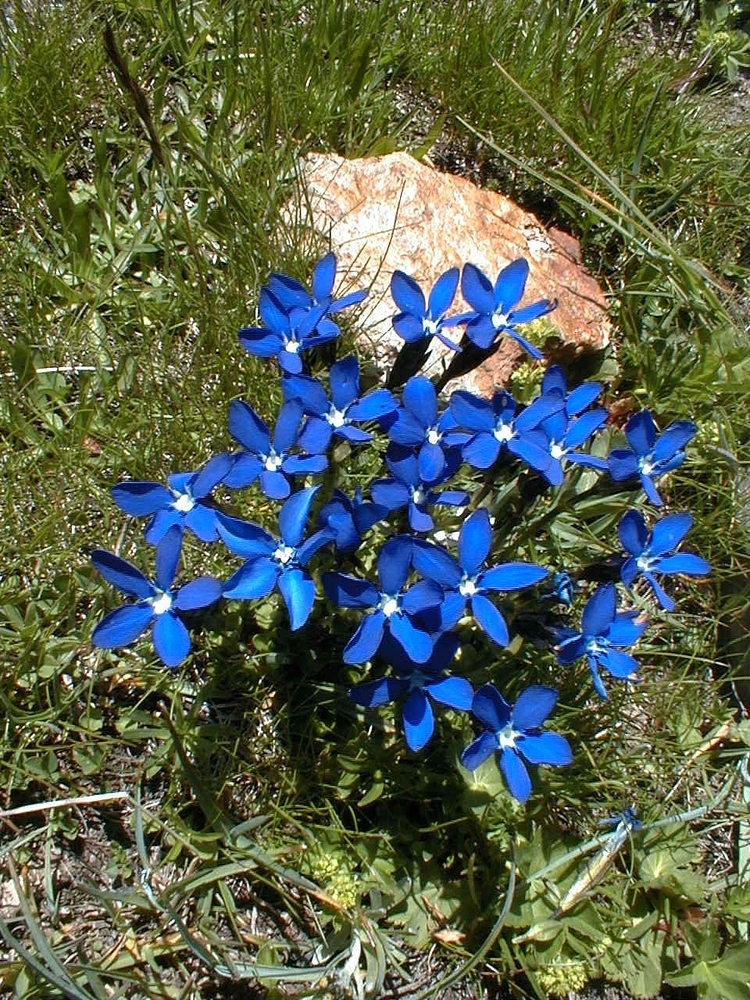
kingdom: Plantae
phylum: Tracheophyta
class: Magnoliopsida
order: Gentianales
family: Gentianaceae
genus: Gentiana
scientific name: Gentiana bavarica
